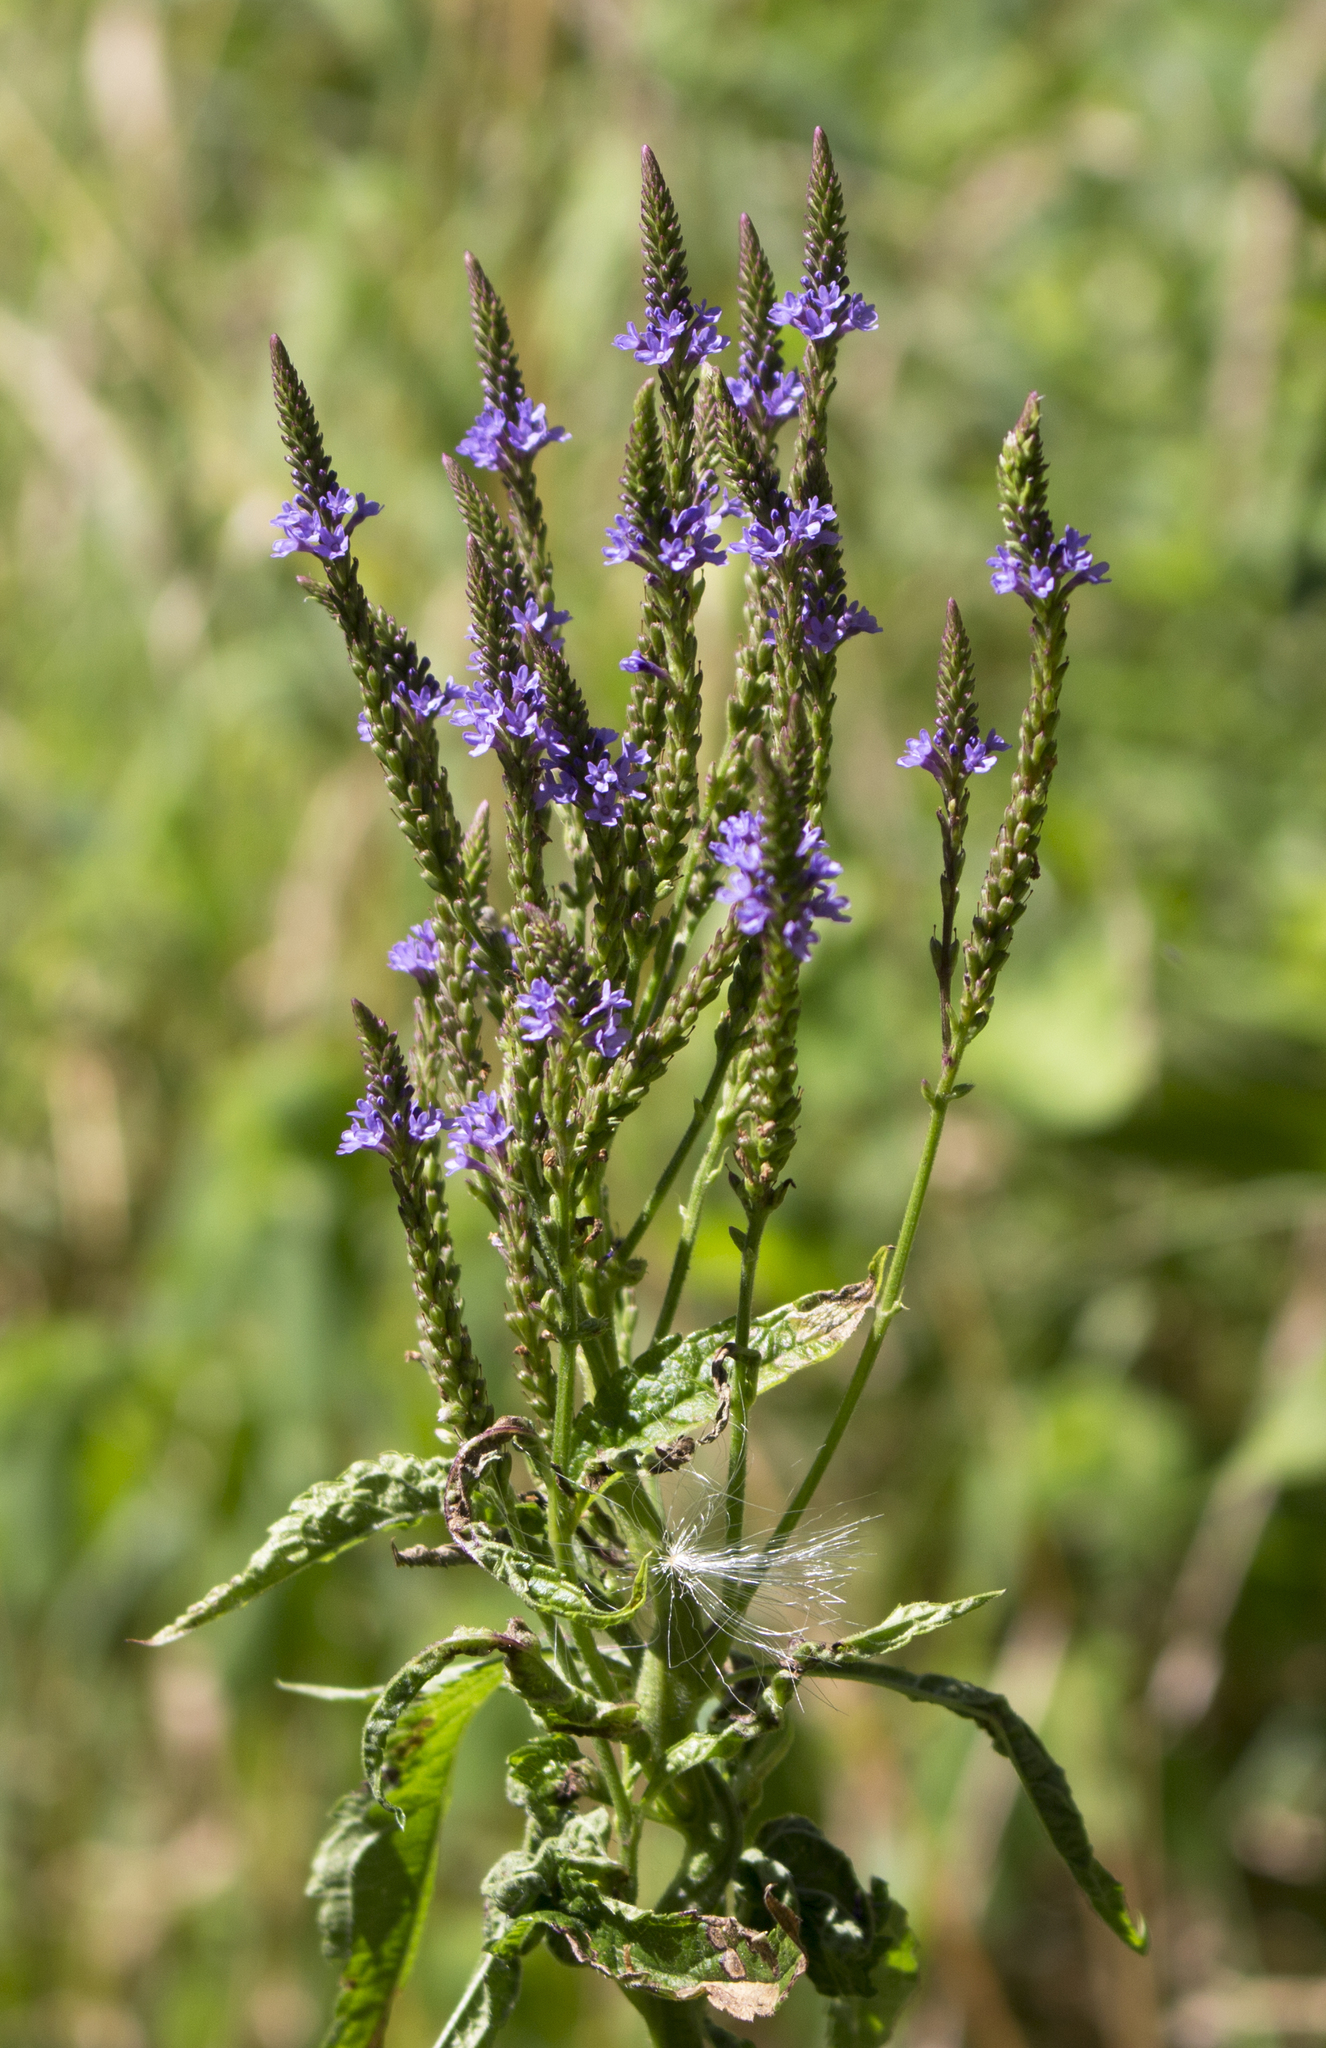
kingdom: Plantae
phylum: Tracheophyta
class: Magnoliopsida
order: Lamiales
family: Verbenaceae
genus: Verbena
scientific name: Verbena hastata
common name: American blue vervain
